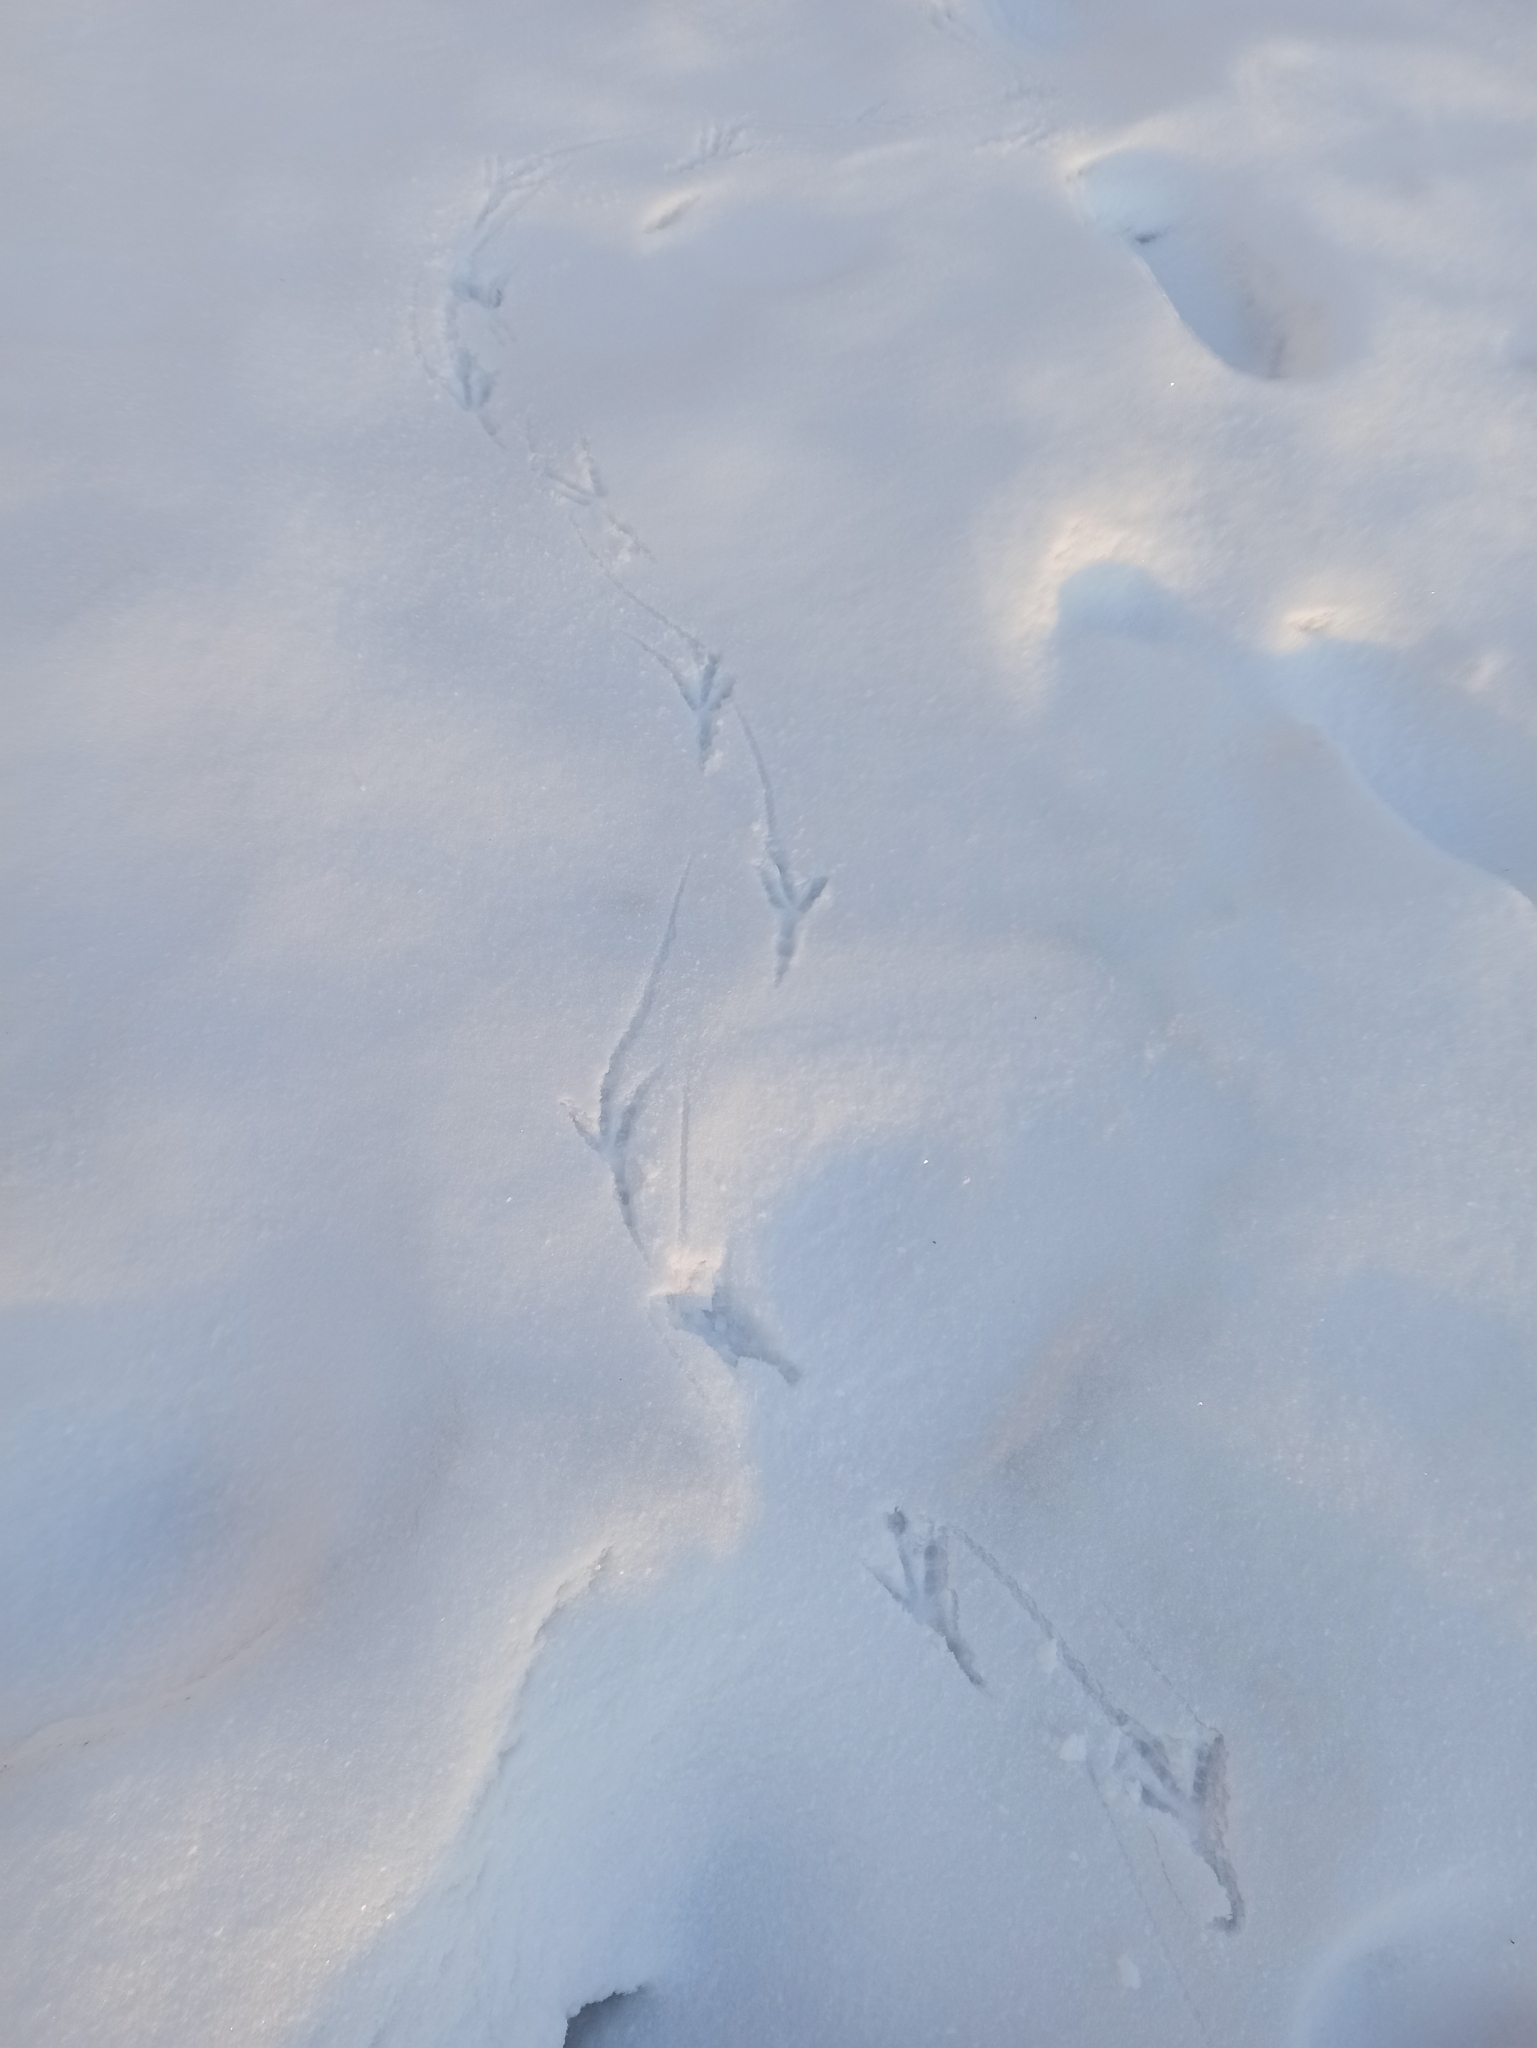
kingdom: Animalia
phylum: Chordata
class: Aves
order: Passeriformes
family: Corvidae
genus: Corvus
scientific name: Corvus frugilegus
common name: Rook
